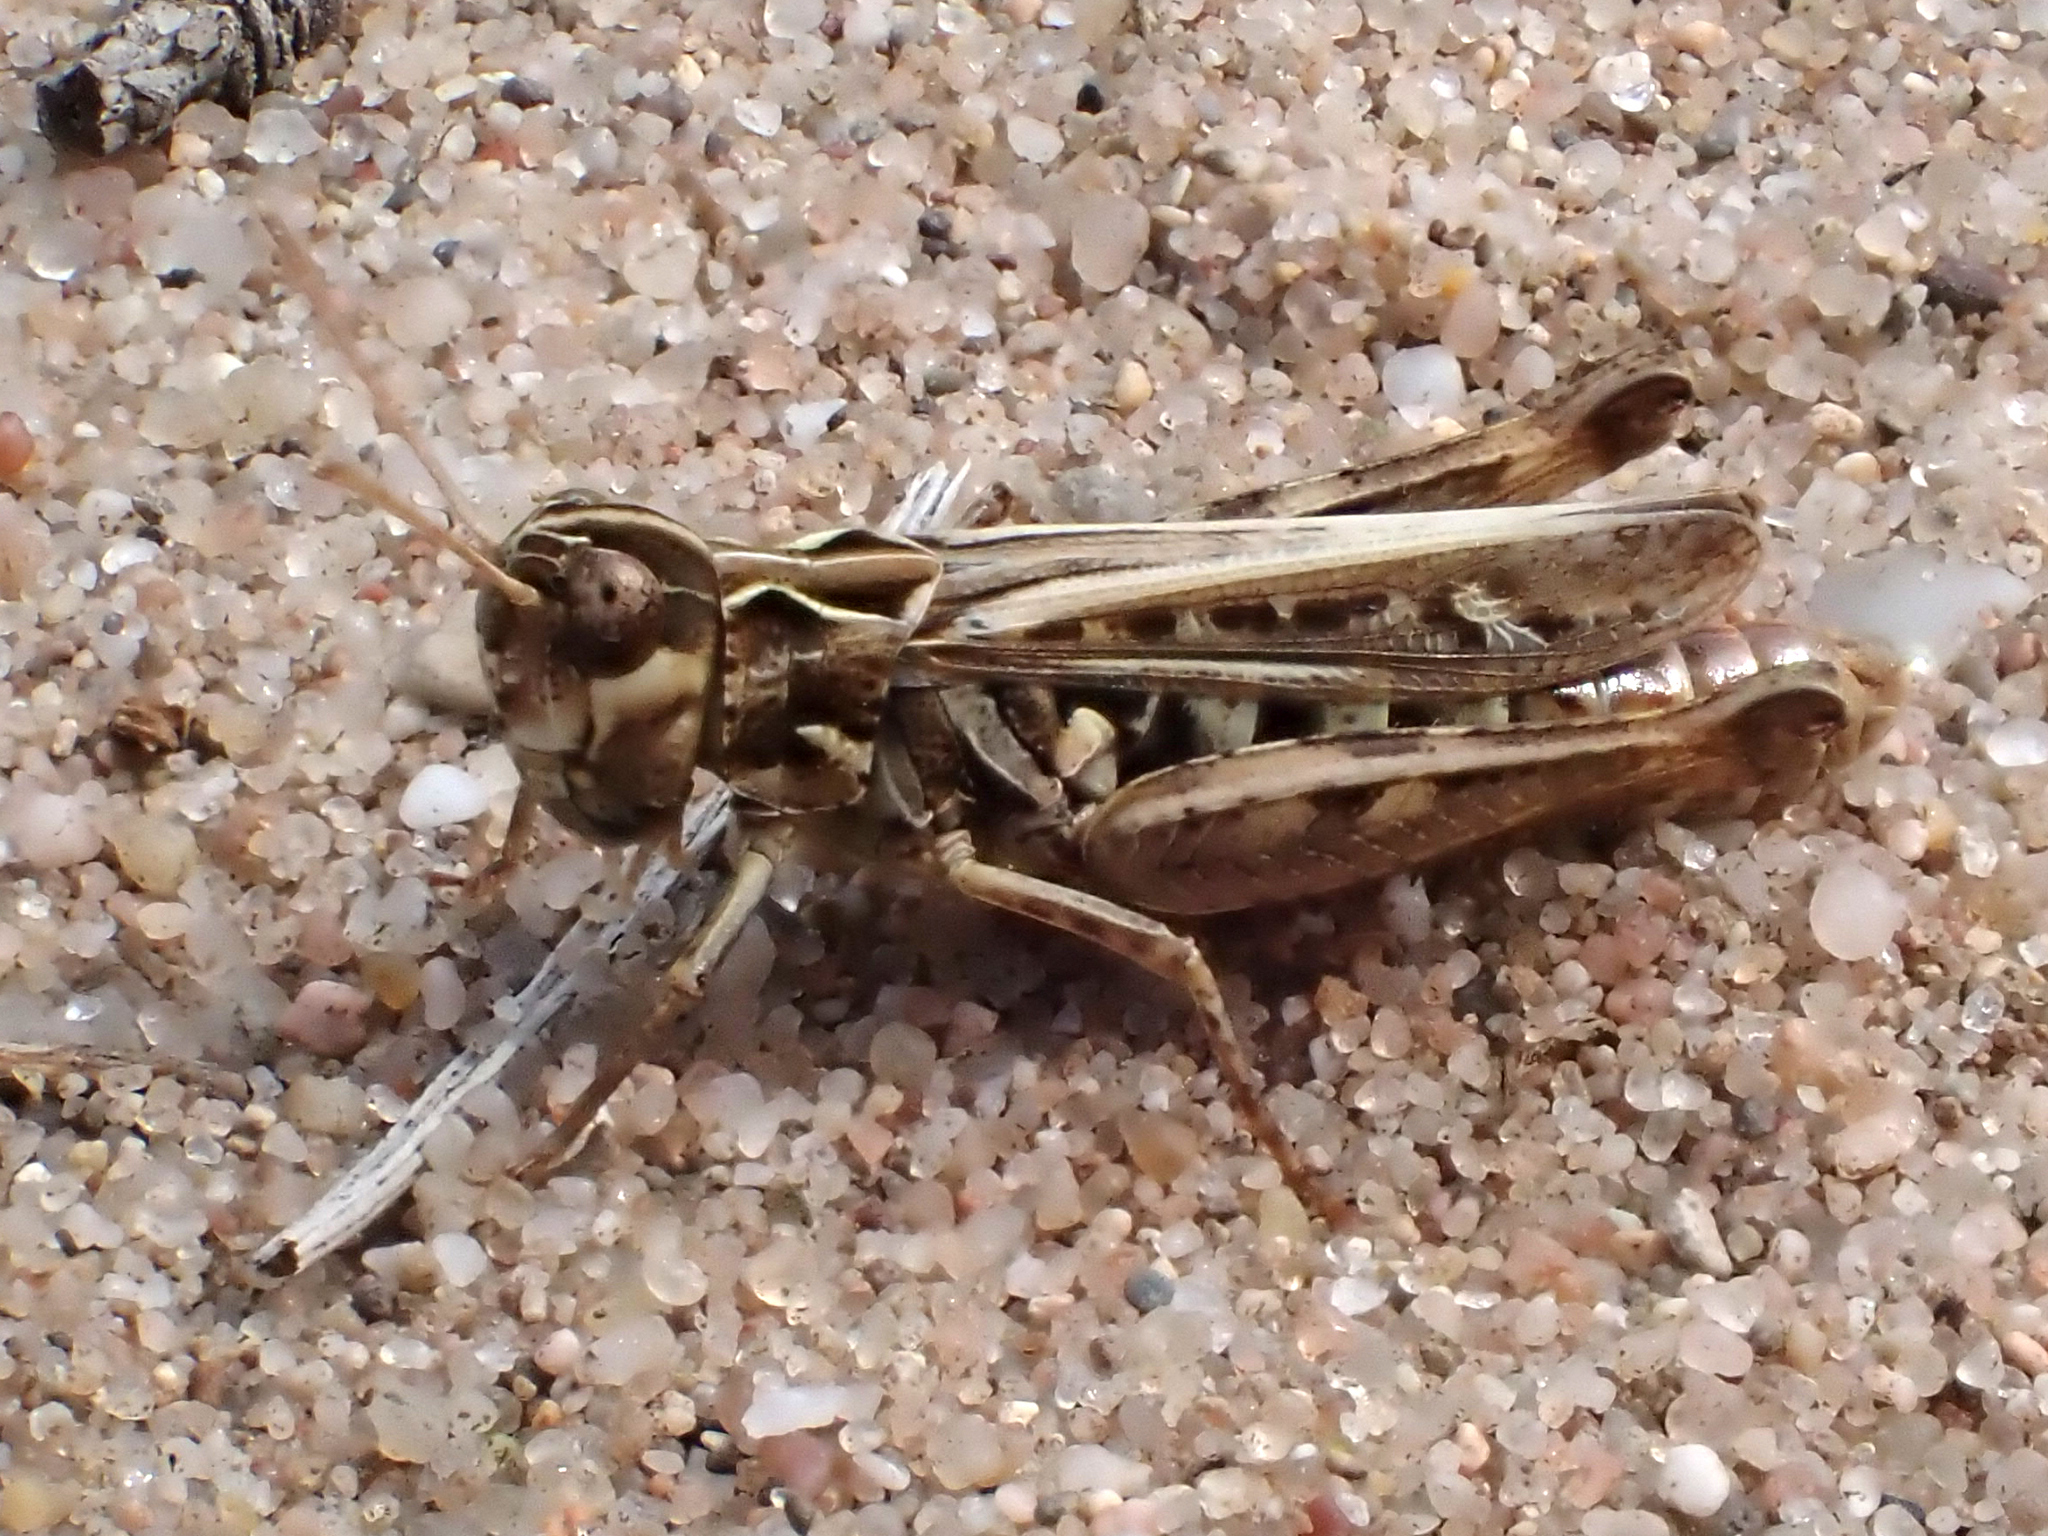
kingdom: Animalia
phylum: Arthropoda
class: Insecta
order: Orthoptera
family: Acrididae
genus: Myrmeleotettix
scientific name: Myrmeleotettix maculatus
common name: Mottled grasshopper
